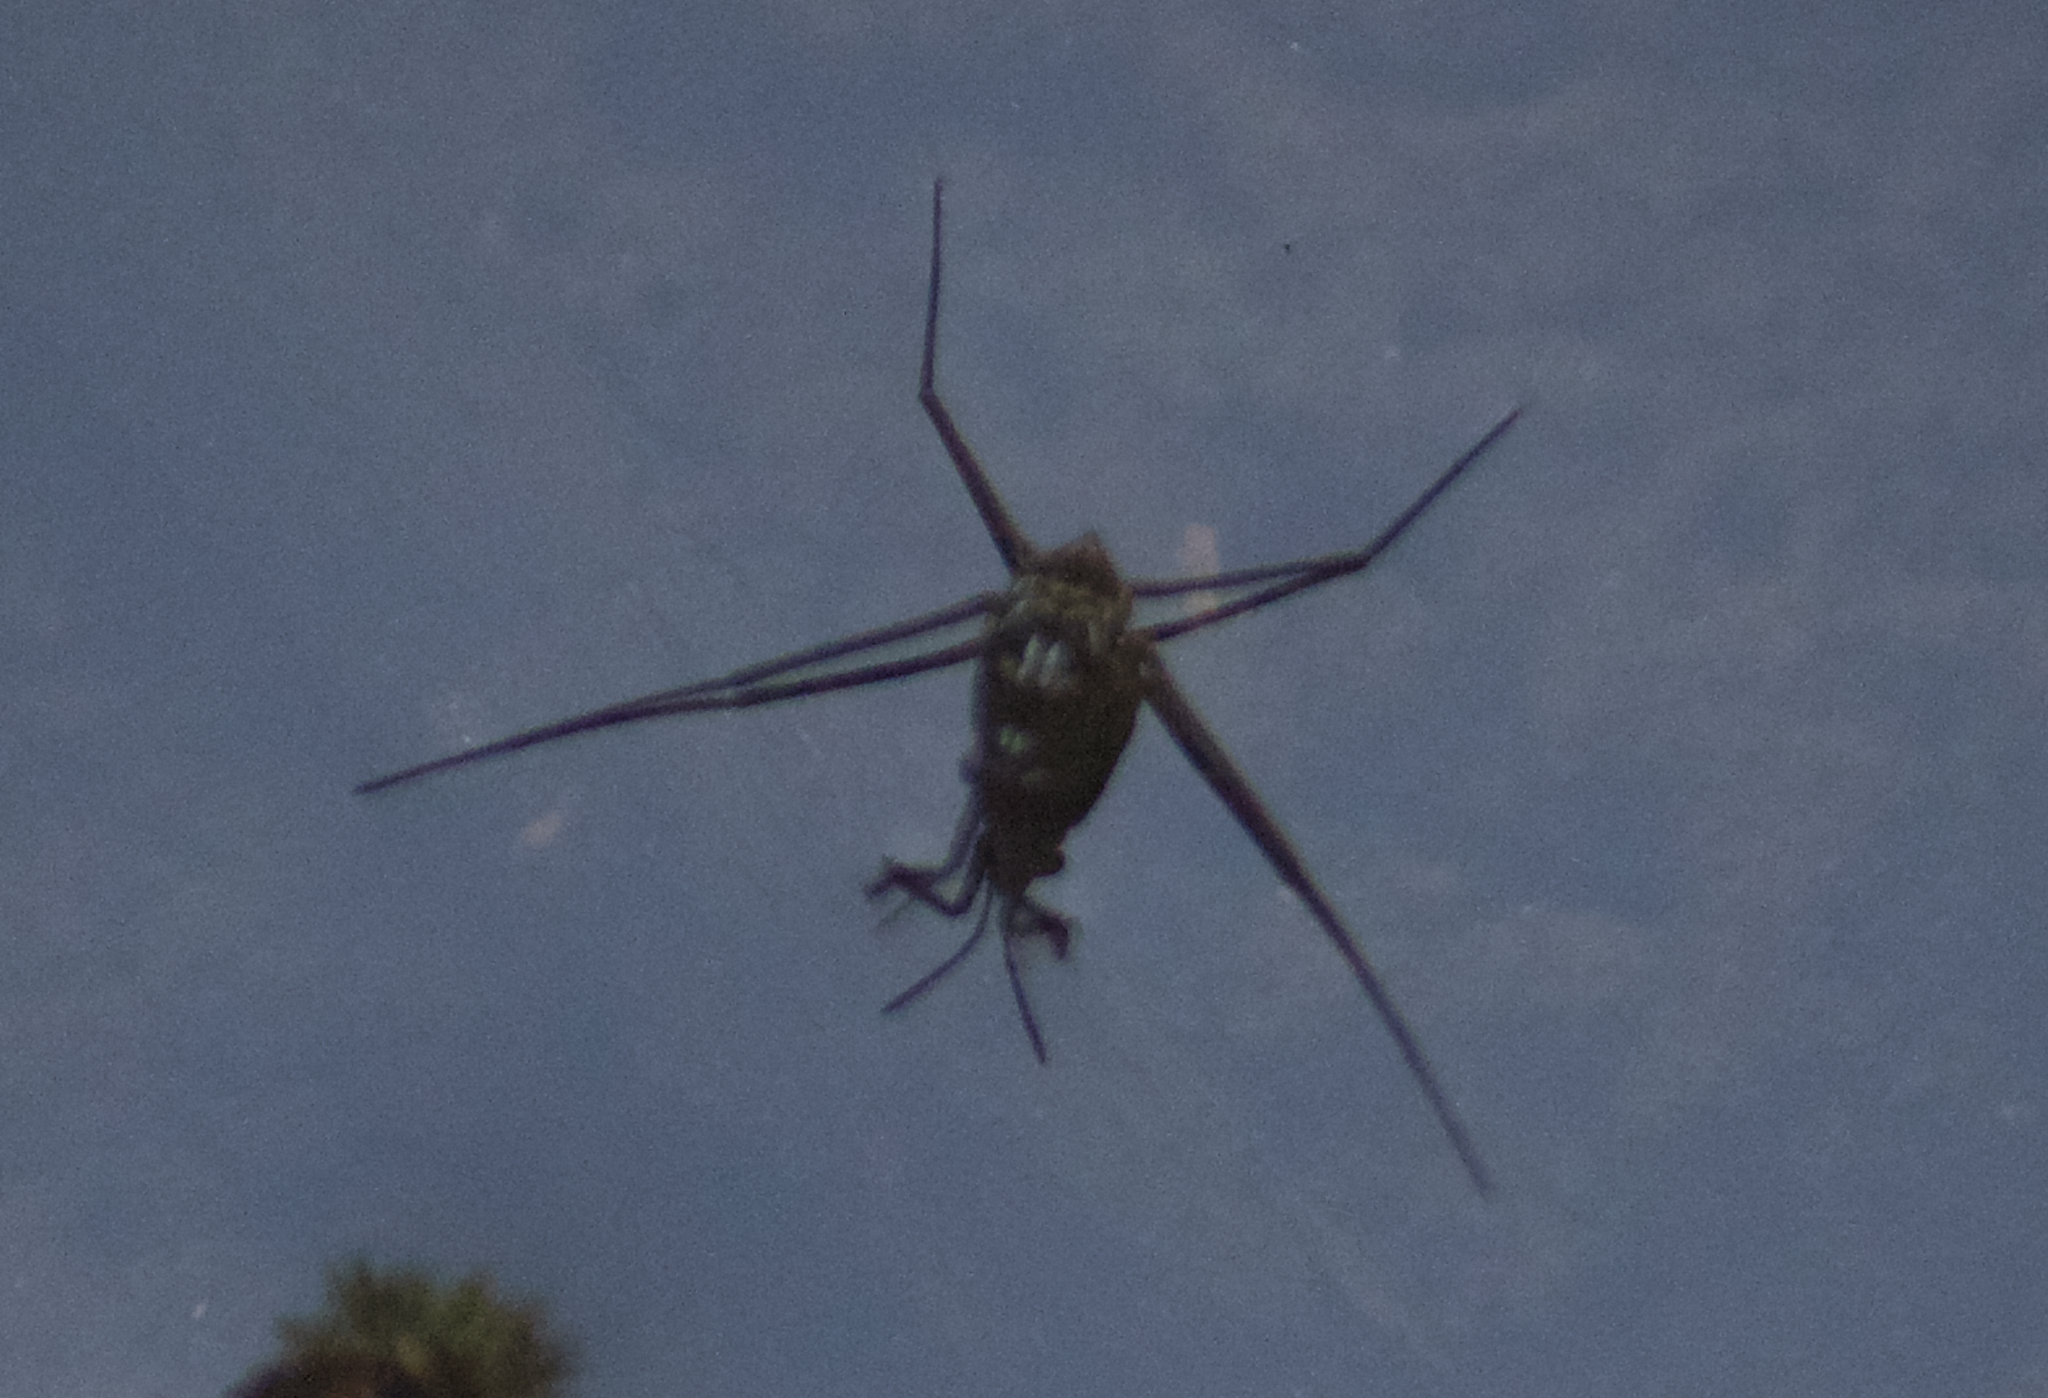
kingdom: Animalia
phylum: Arthropoda
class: Insecta
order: Hemiptera
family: Gerridae
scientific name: Gerridae
